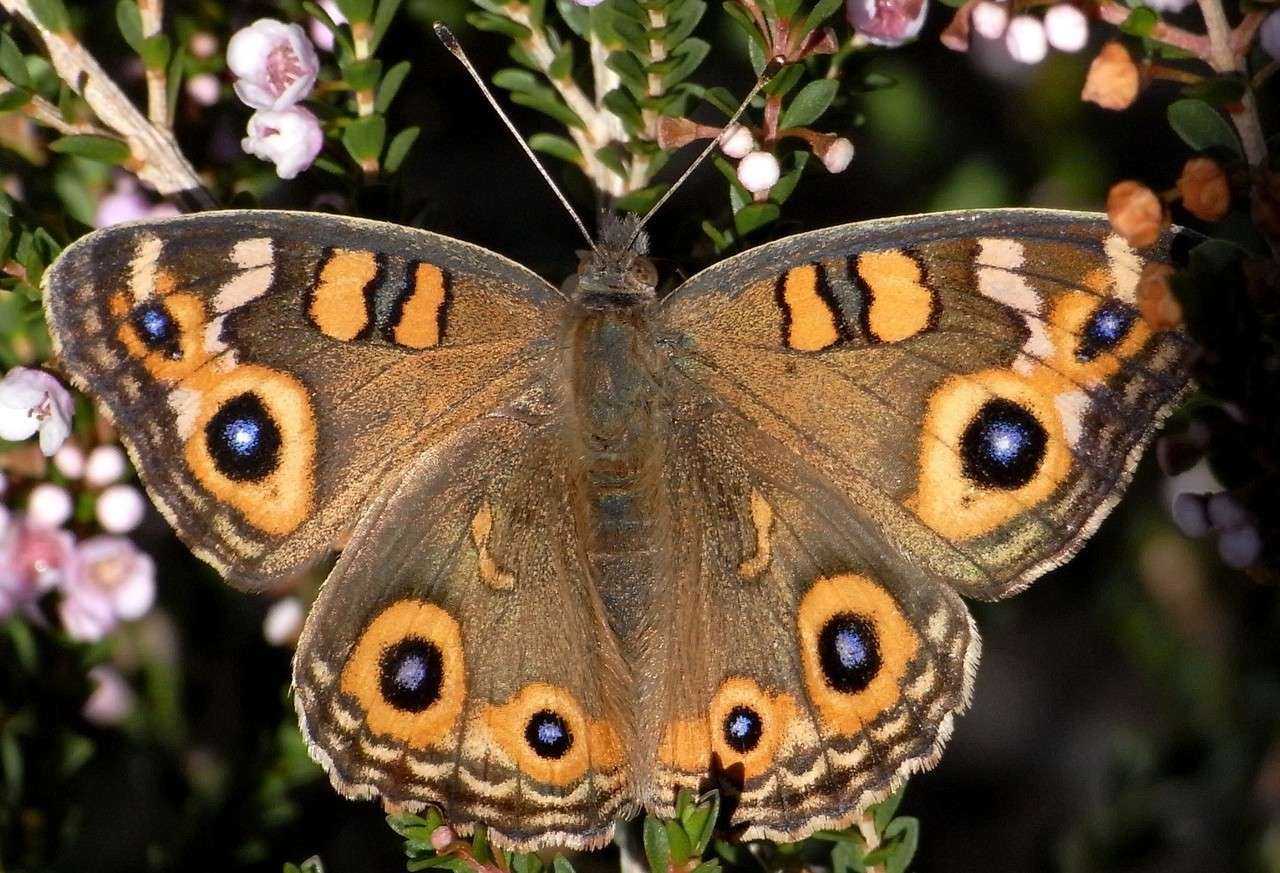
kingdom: Animalia
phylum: Arthropoda
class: Insecta
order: Lepidoptera
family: Nymphalidae
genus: Junonia
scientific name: Junonia villida
